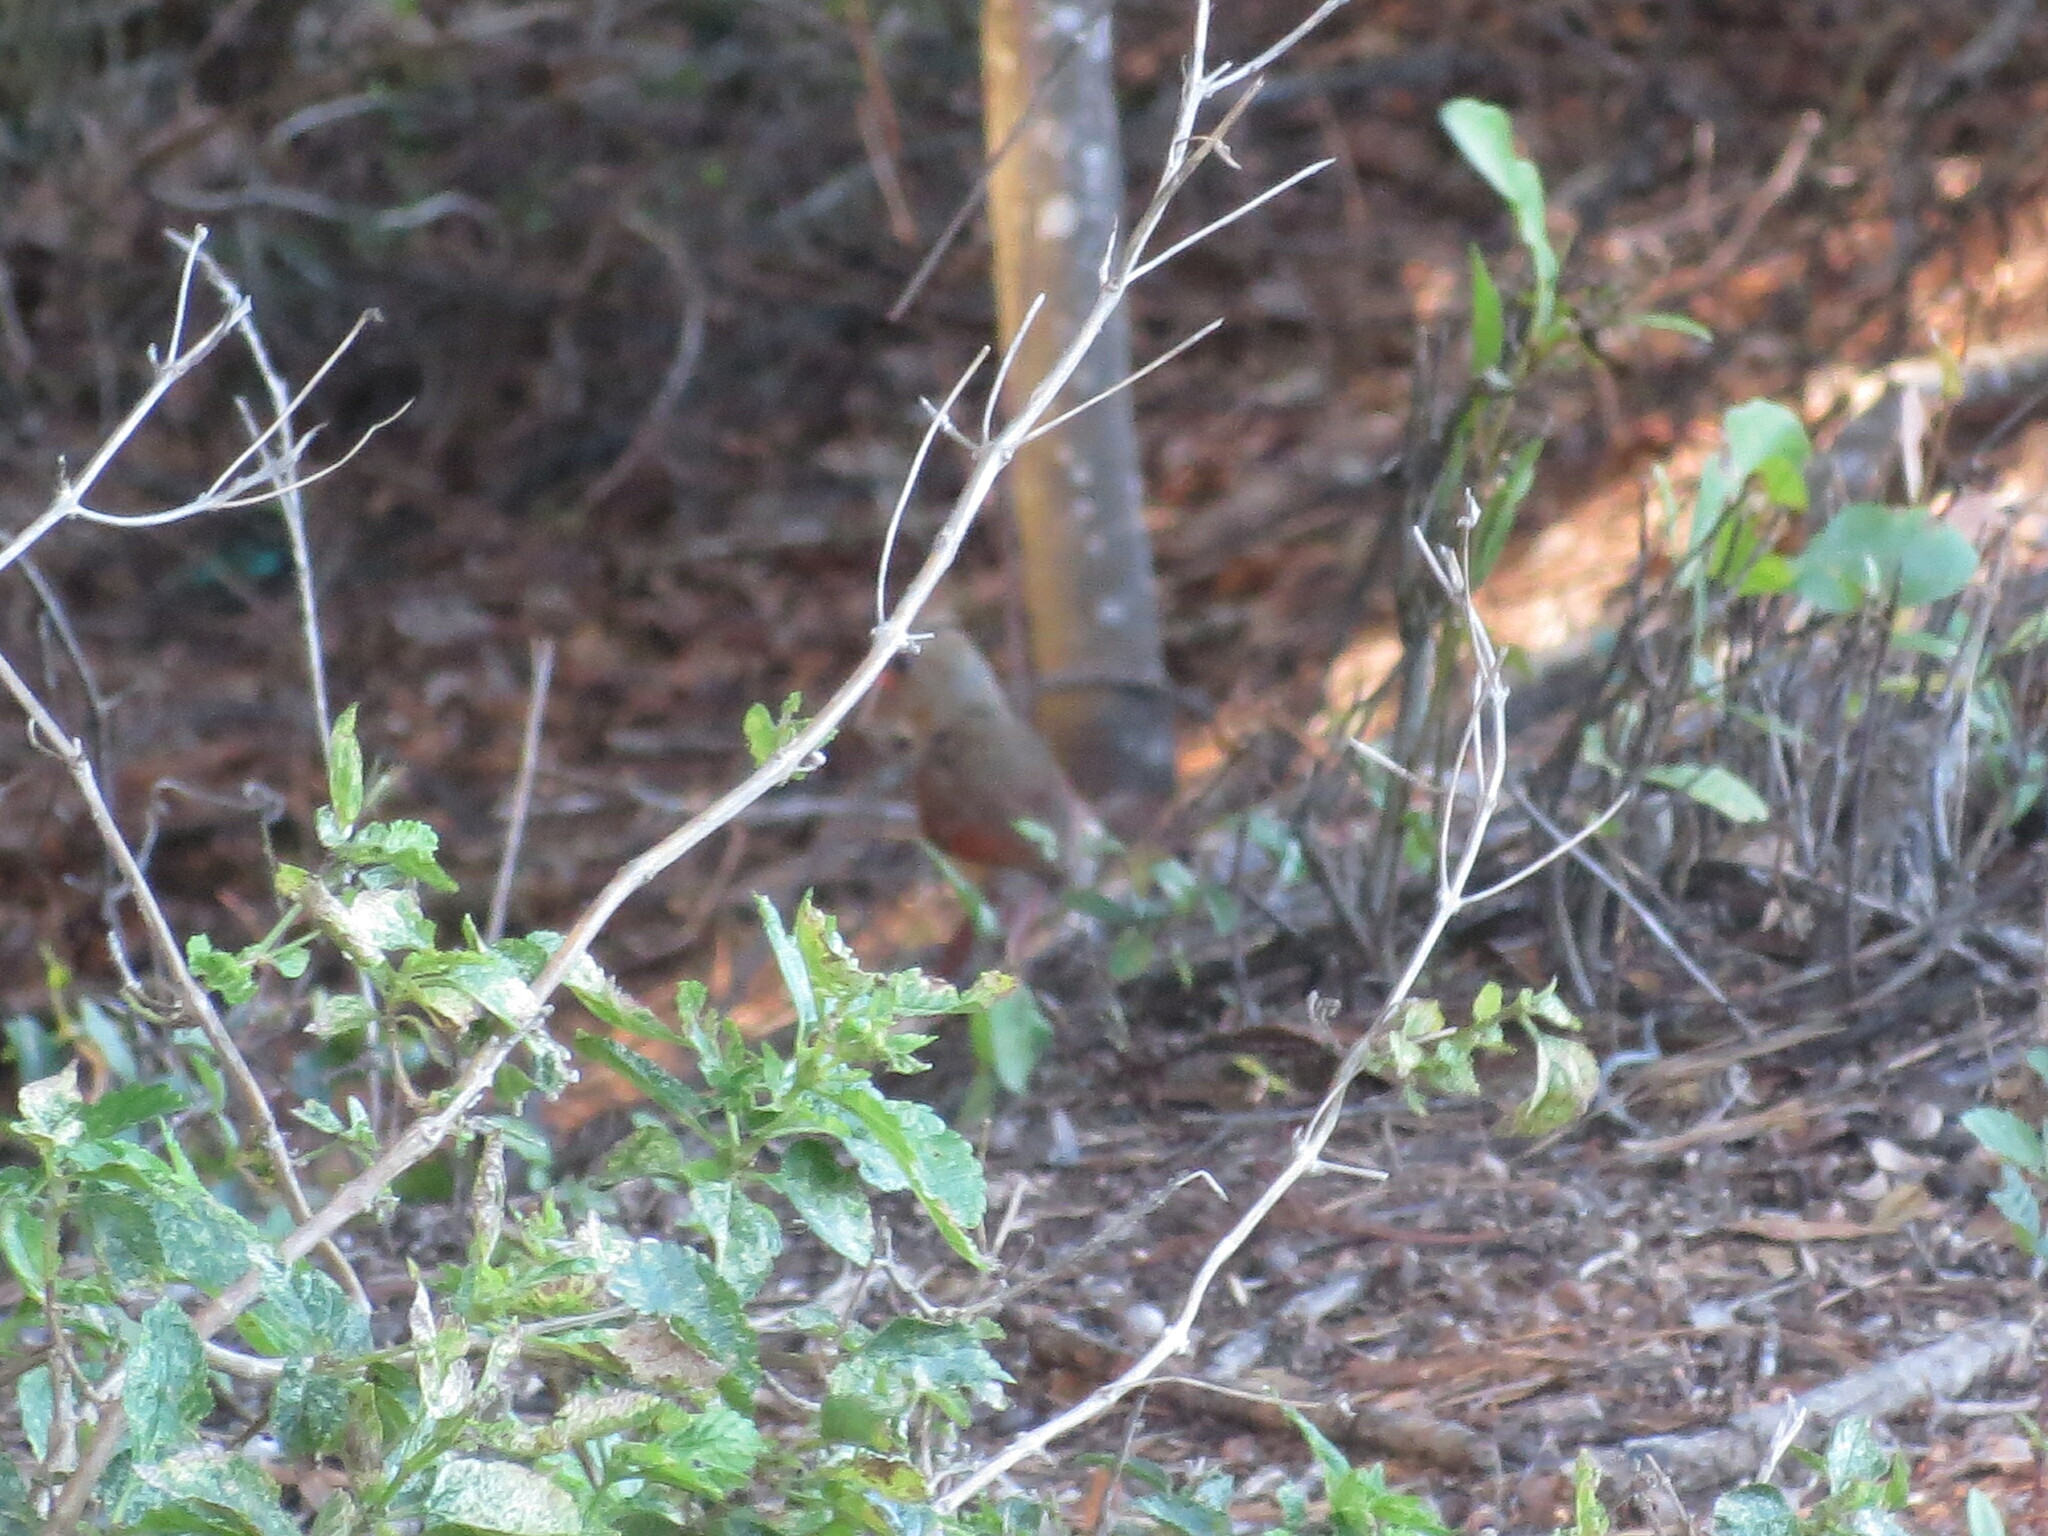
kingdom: Animalia
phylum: Chordata
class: Aves
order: Passeriformes
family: Cardinalidae
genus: Cardinalis
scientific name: Cardinalis cardinalis
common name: Northern cardinal
